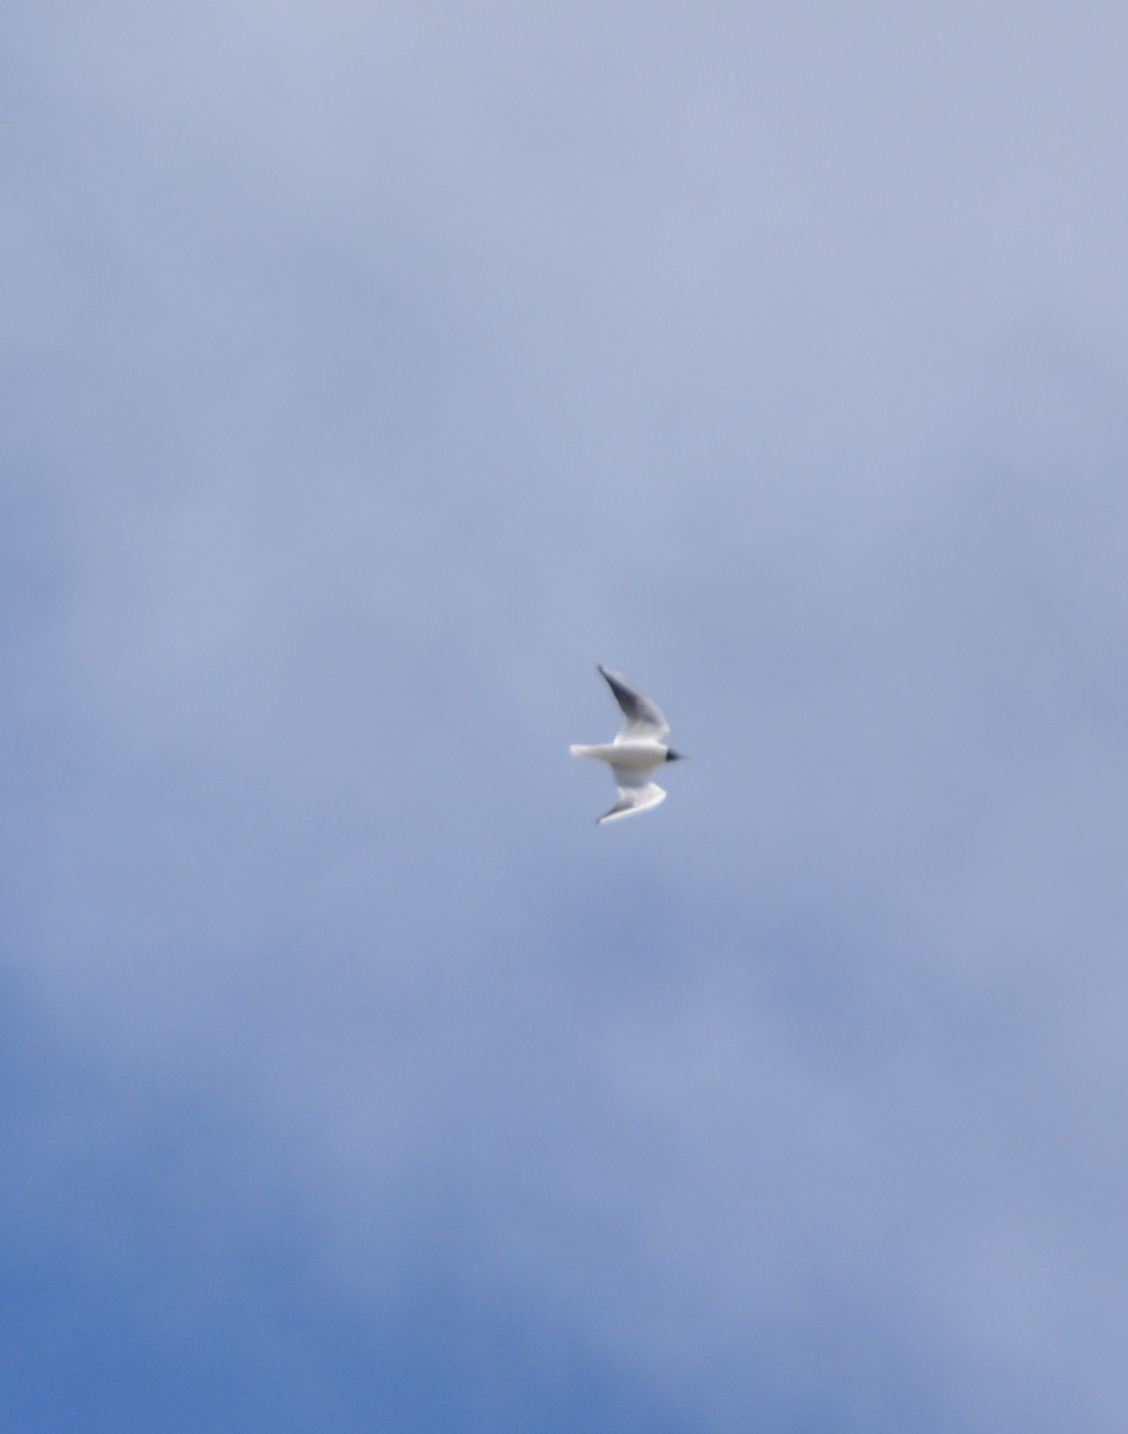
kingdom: Animalia
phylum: Chordata
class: Aves
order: Charadriiformes
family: Laridae
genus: Chroicocephalus
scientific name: Chroicocephalus ridibundus
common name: Black-headed gull
